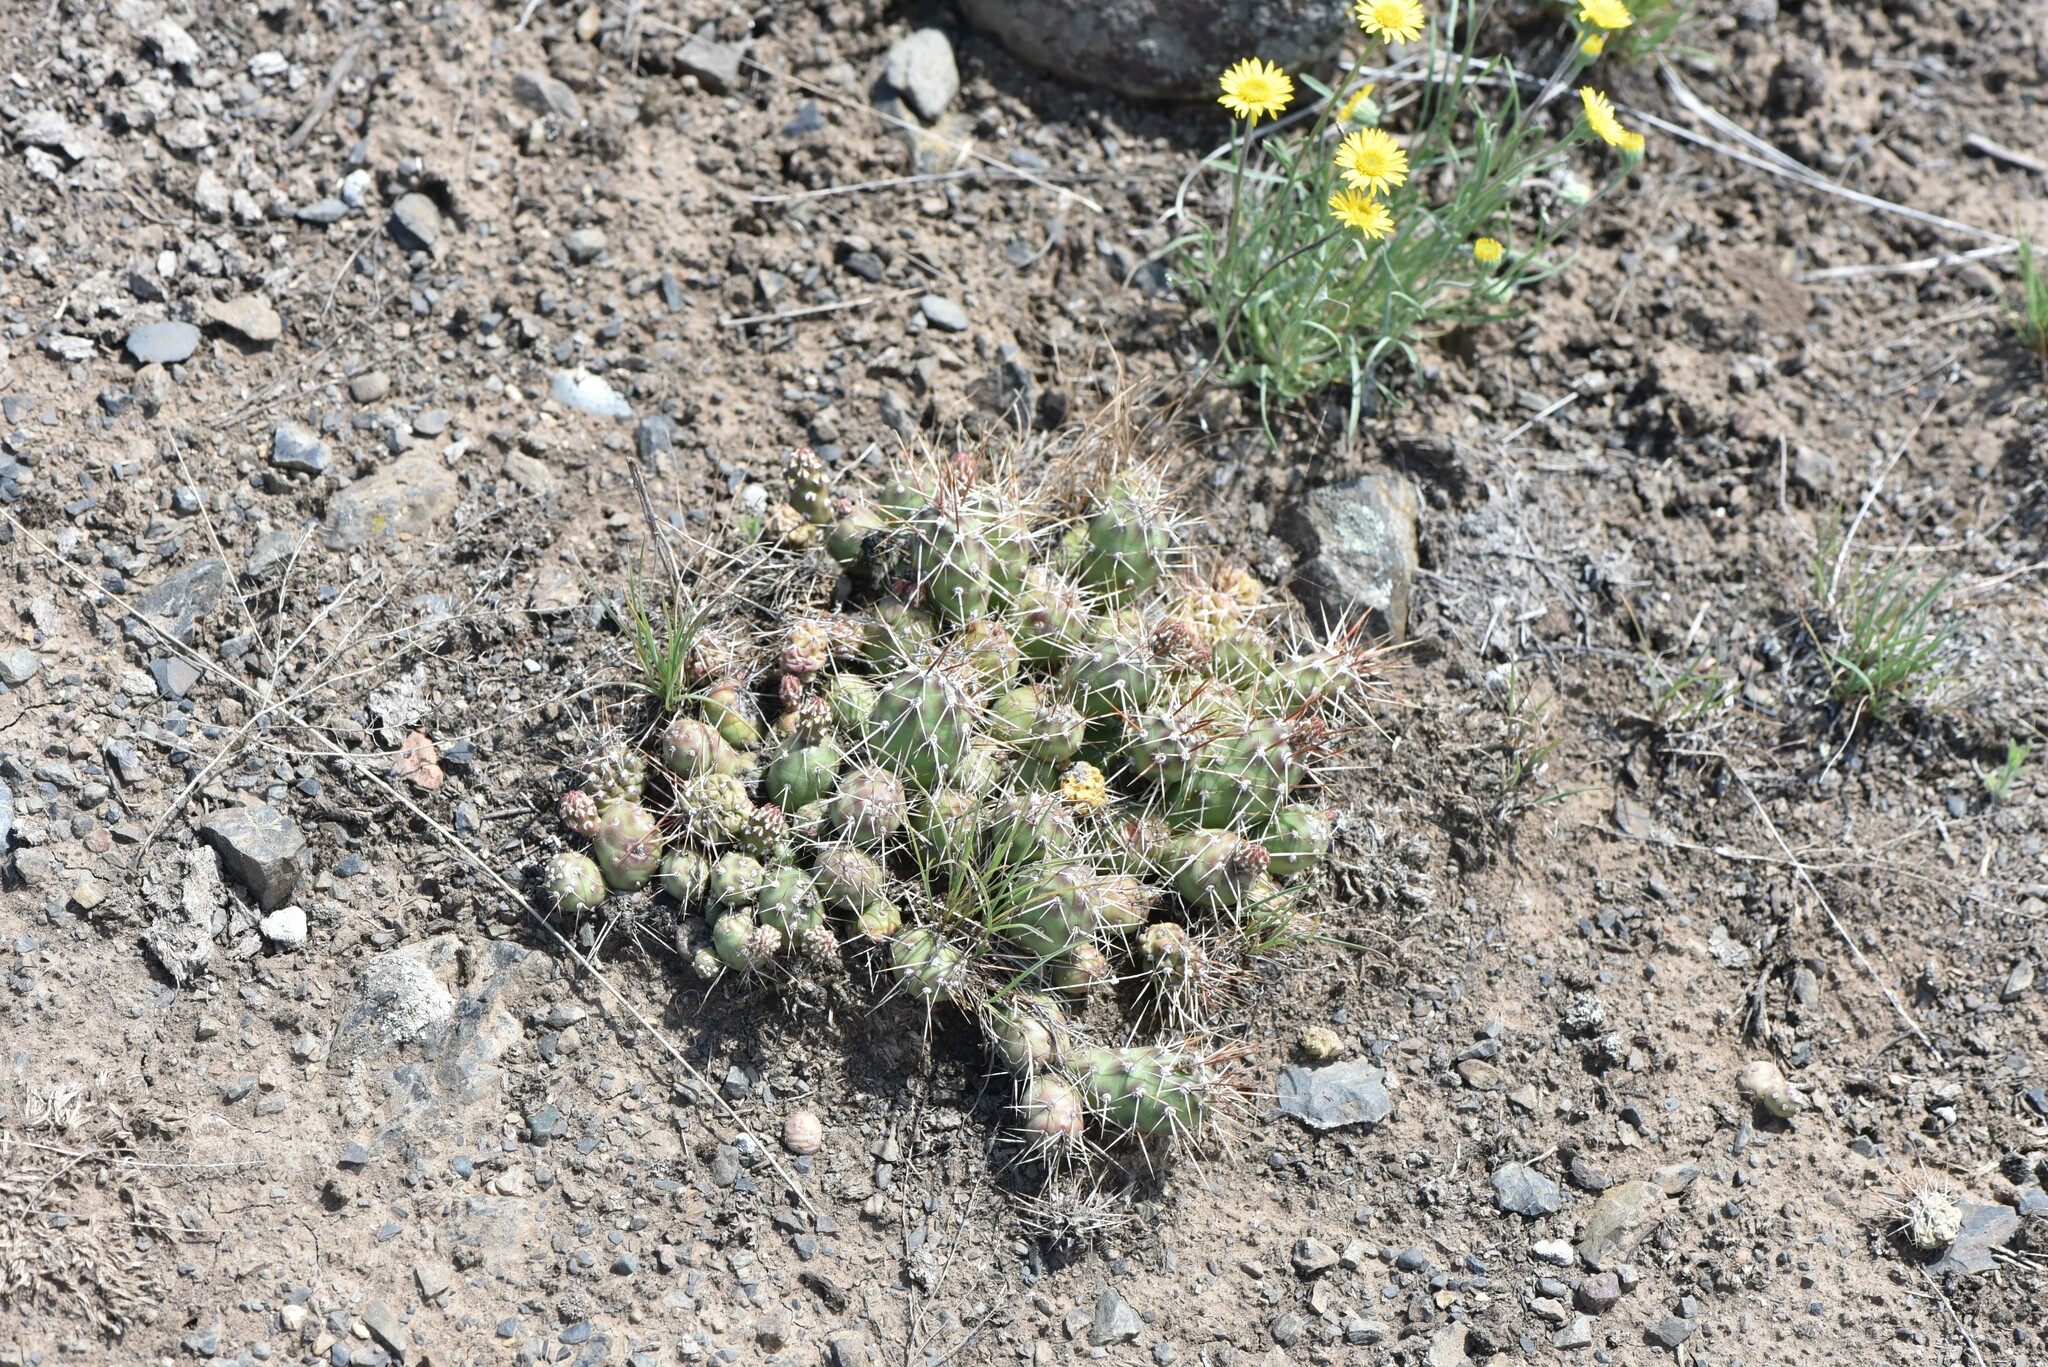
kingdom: Plantae
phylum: Tracheophyta
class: Magnoliopsida
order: Caryophyllales
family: Cactaceae
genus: Opuntia
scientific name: Opuntia fragilis
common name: Brittle cactus
